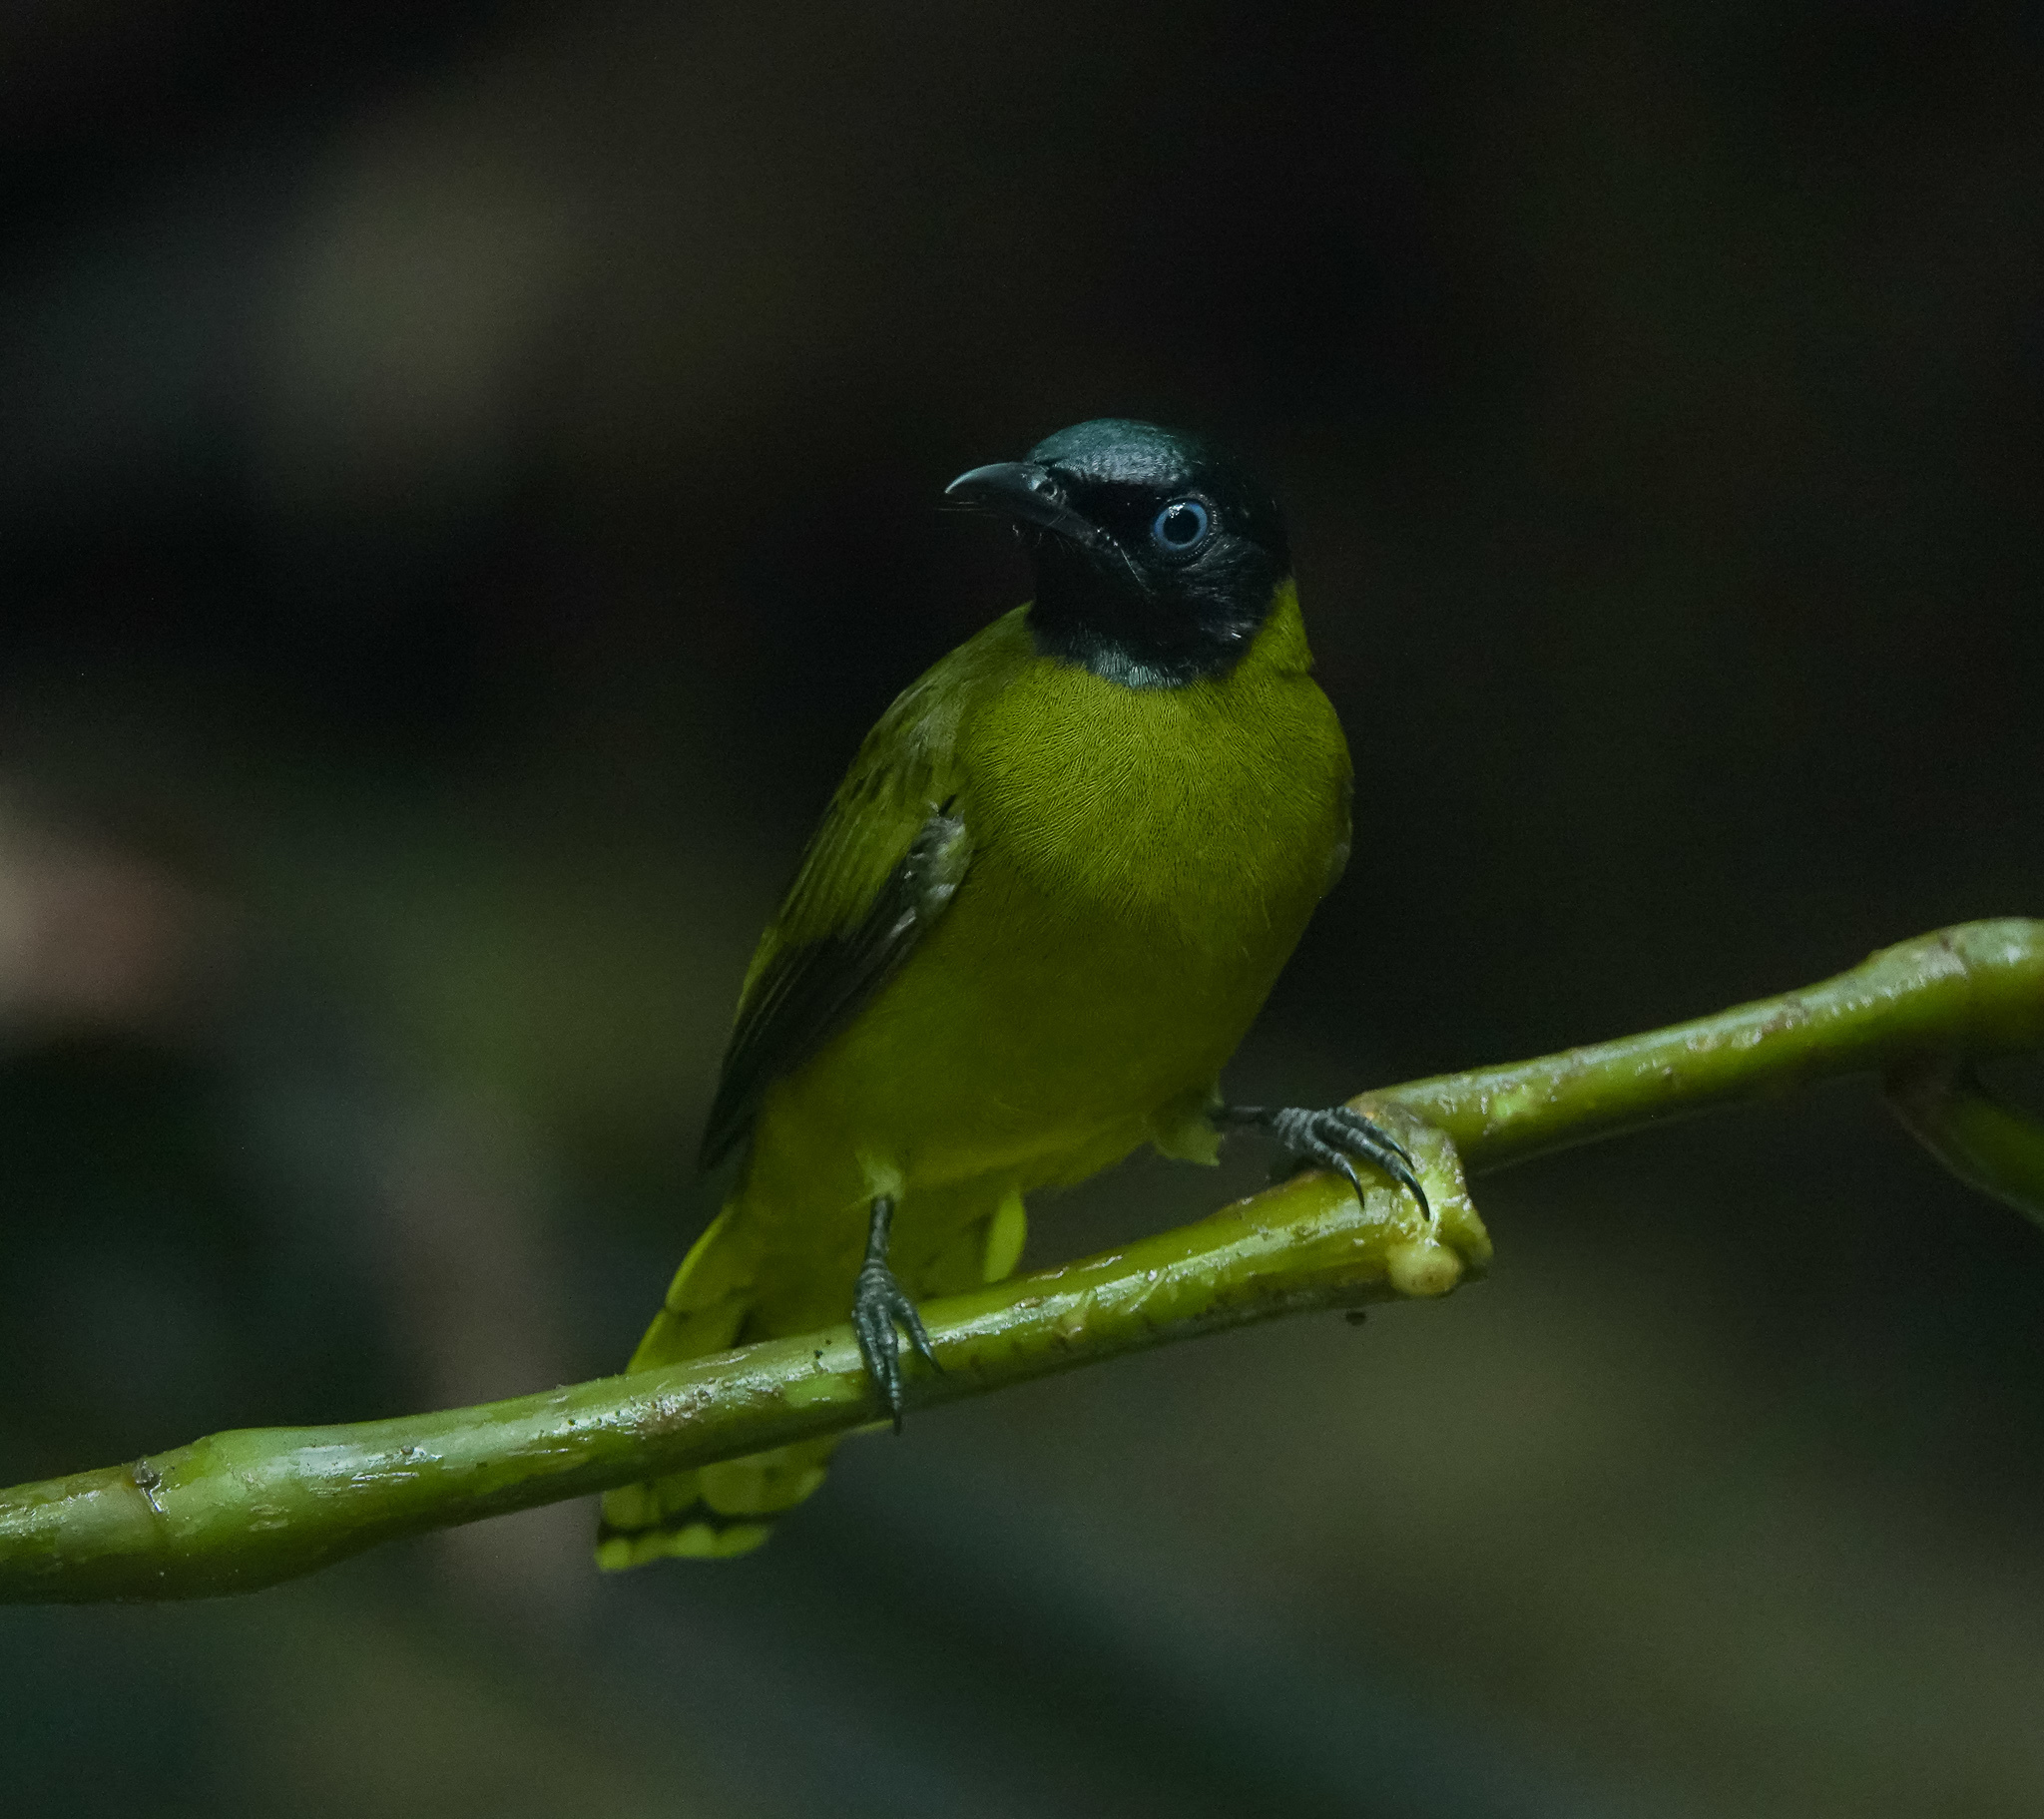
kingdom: Animalia
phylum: Chordata
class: Aves
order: Passeriformes
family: Pycnonotidae
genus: Microtarsus
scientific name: Microtarsus
